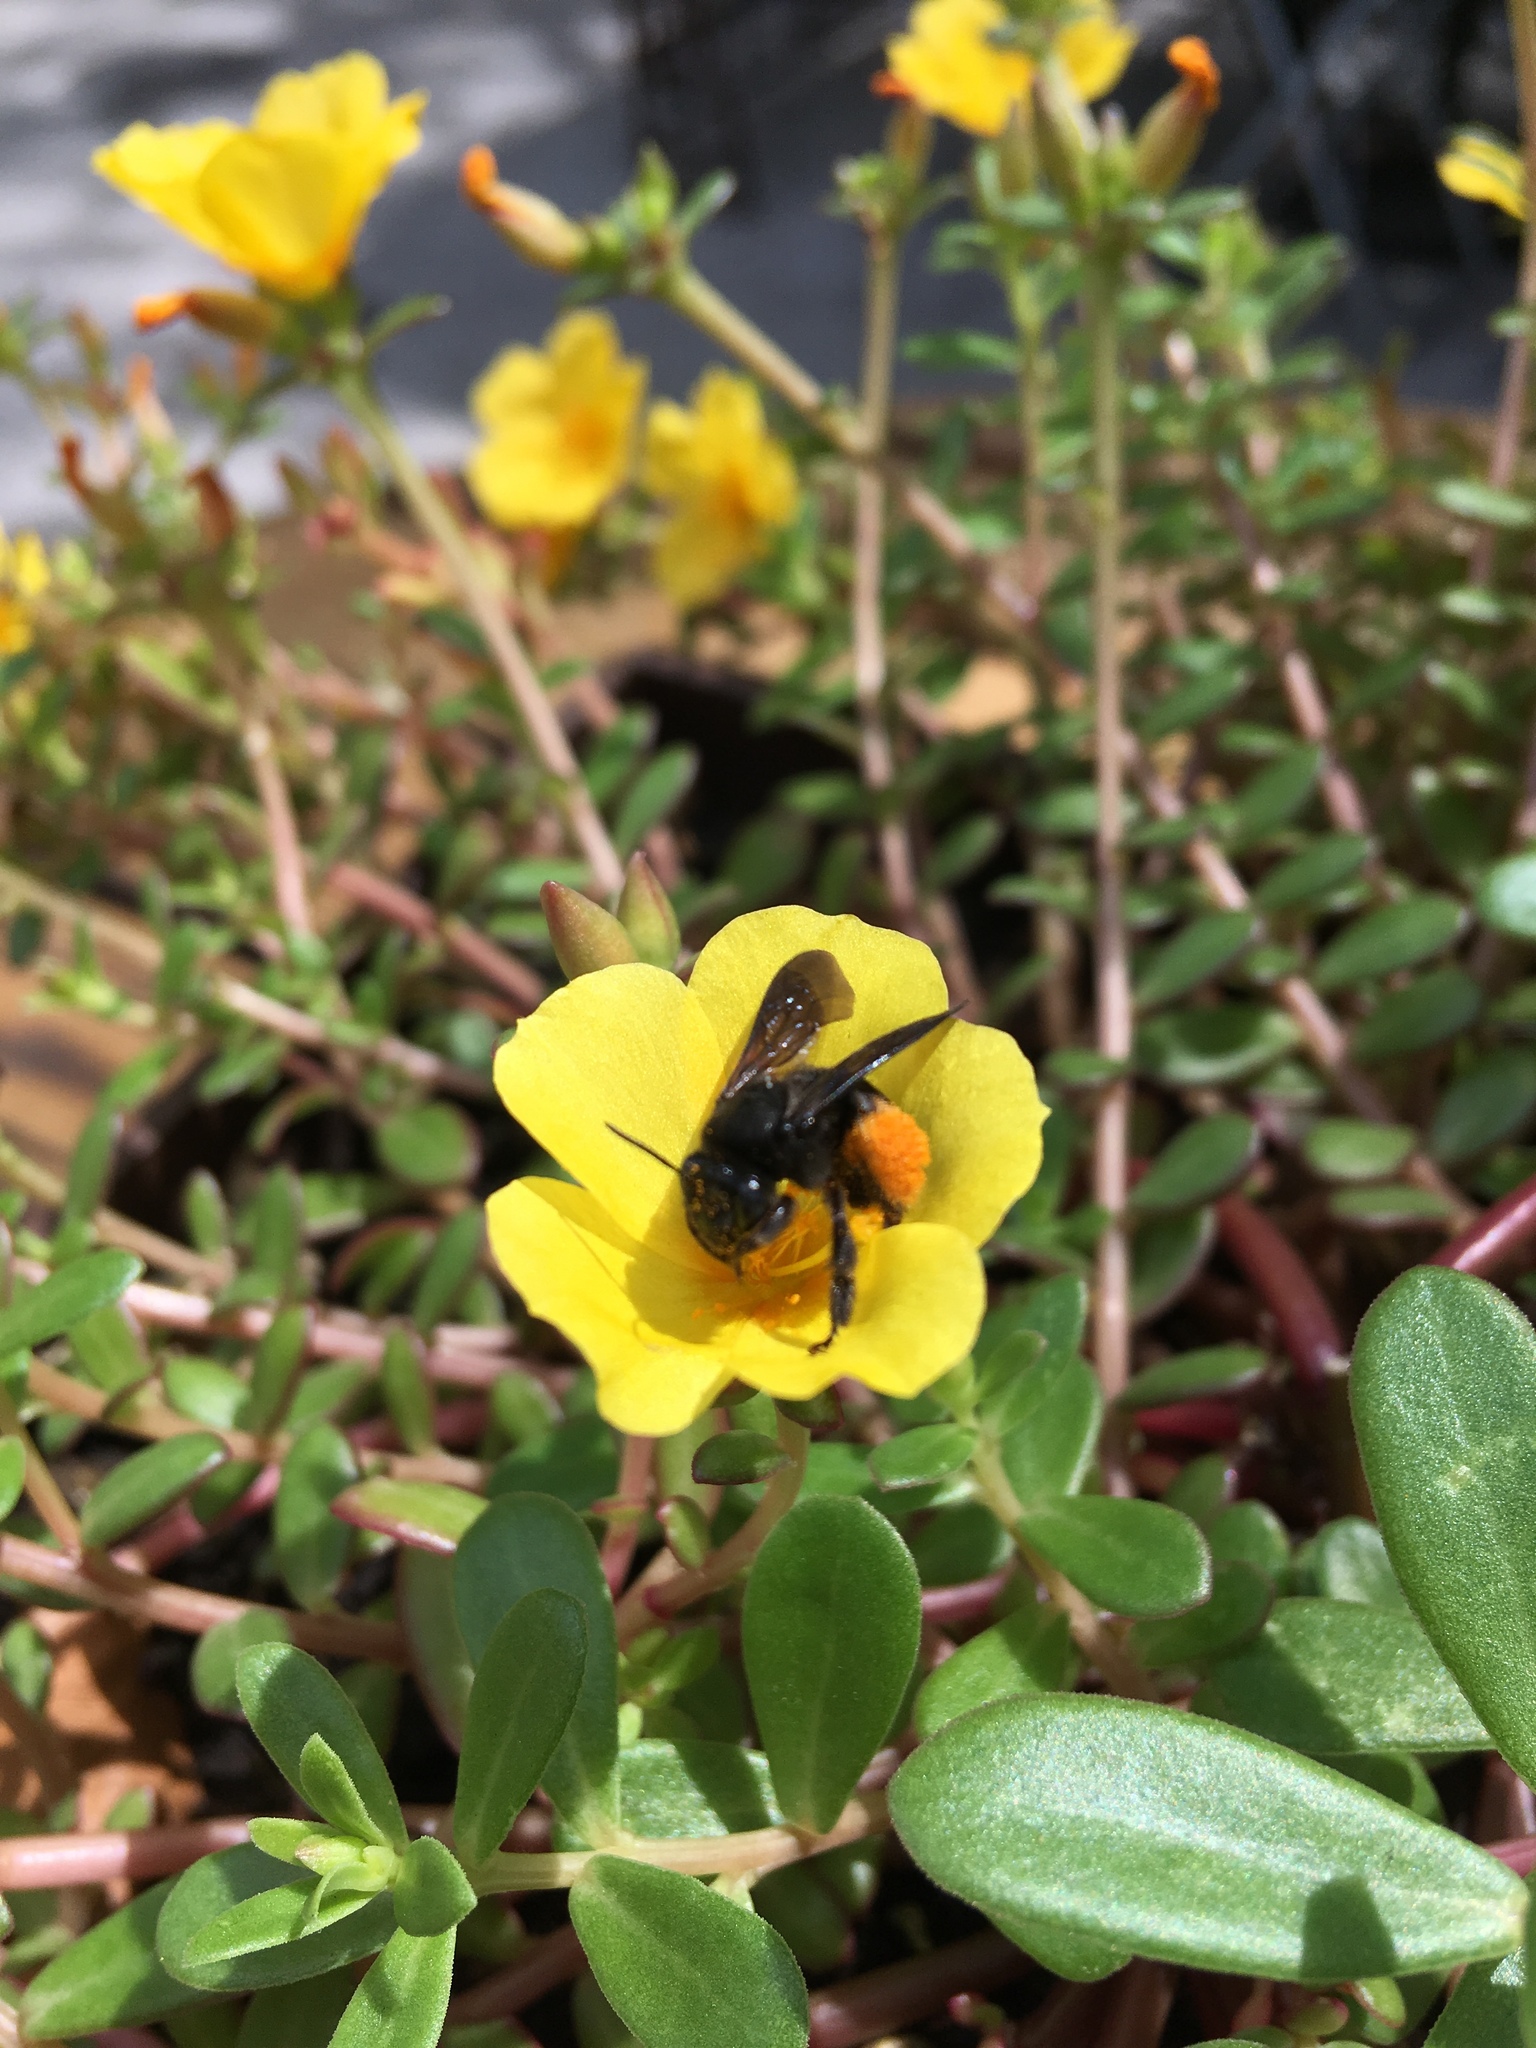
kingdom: Animalia
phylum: Arthropoda
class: Insecta
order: Hymenoptera
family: Apidae
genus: Melissodes
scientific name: Melissodes bimaculatus
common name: Two-spotted long-horned bee
